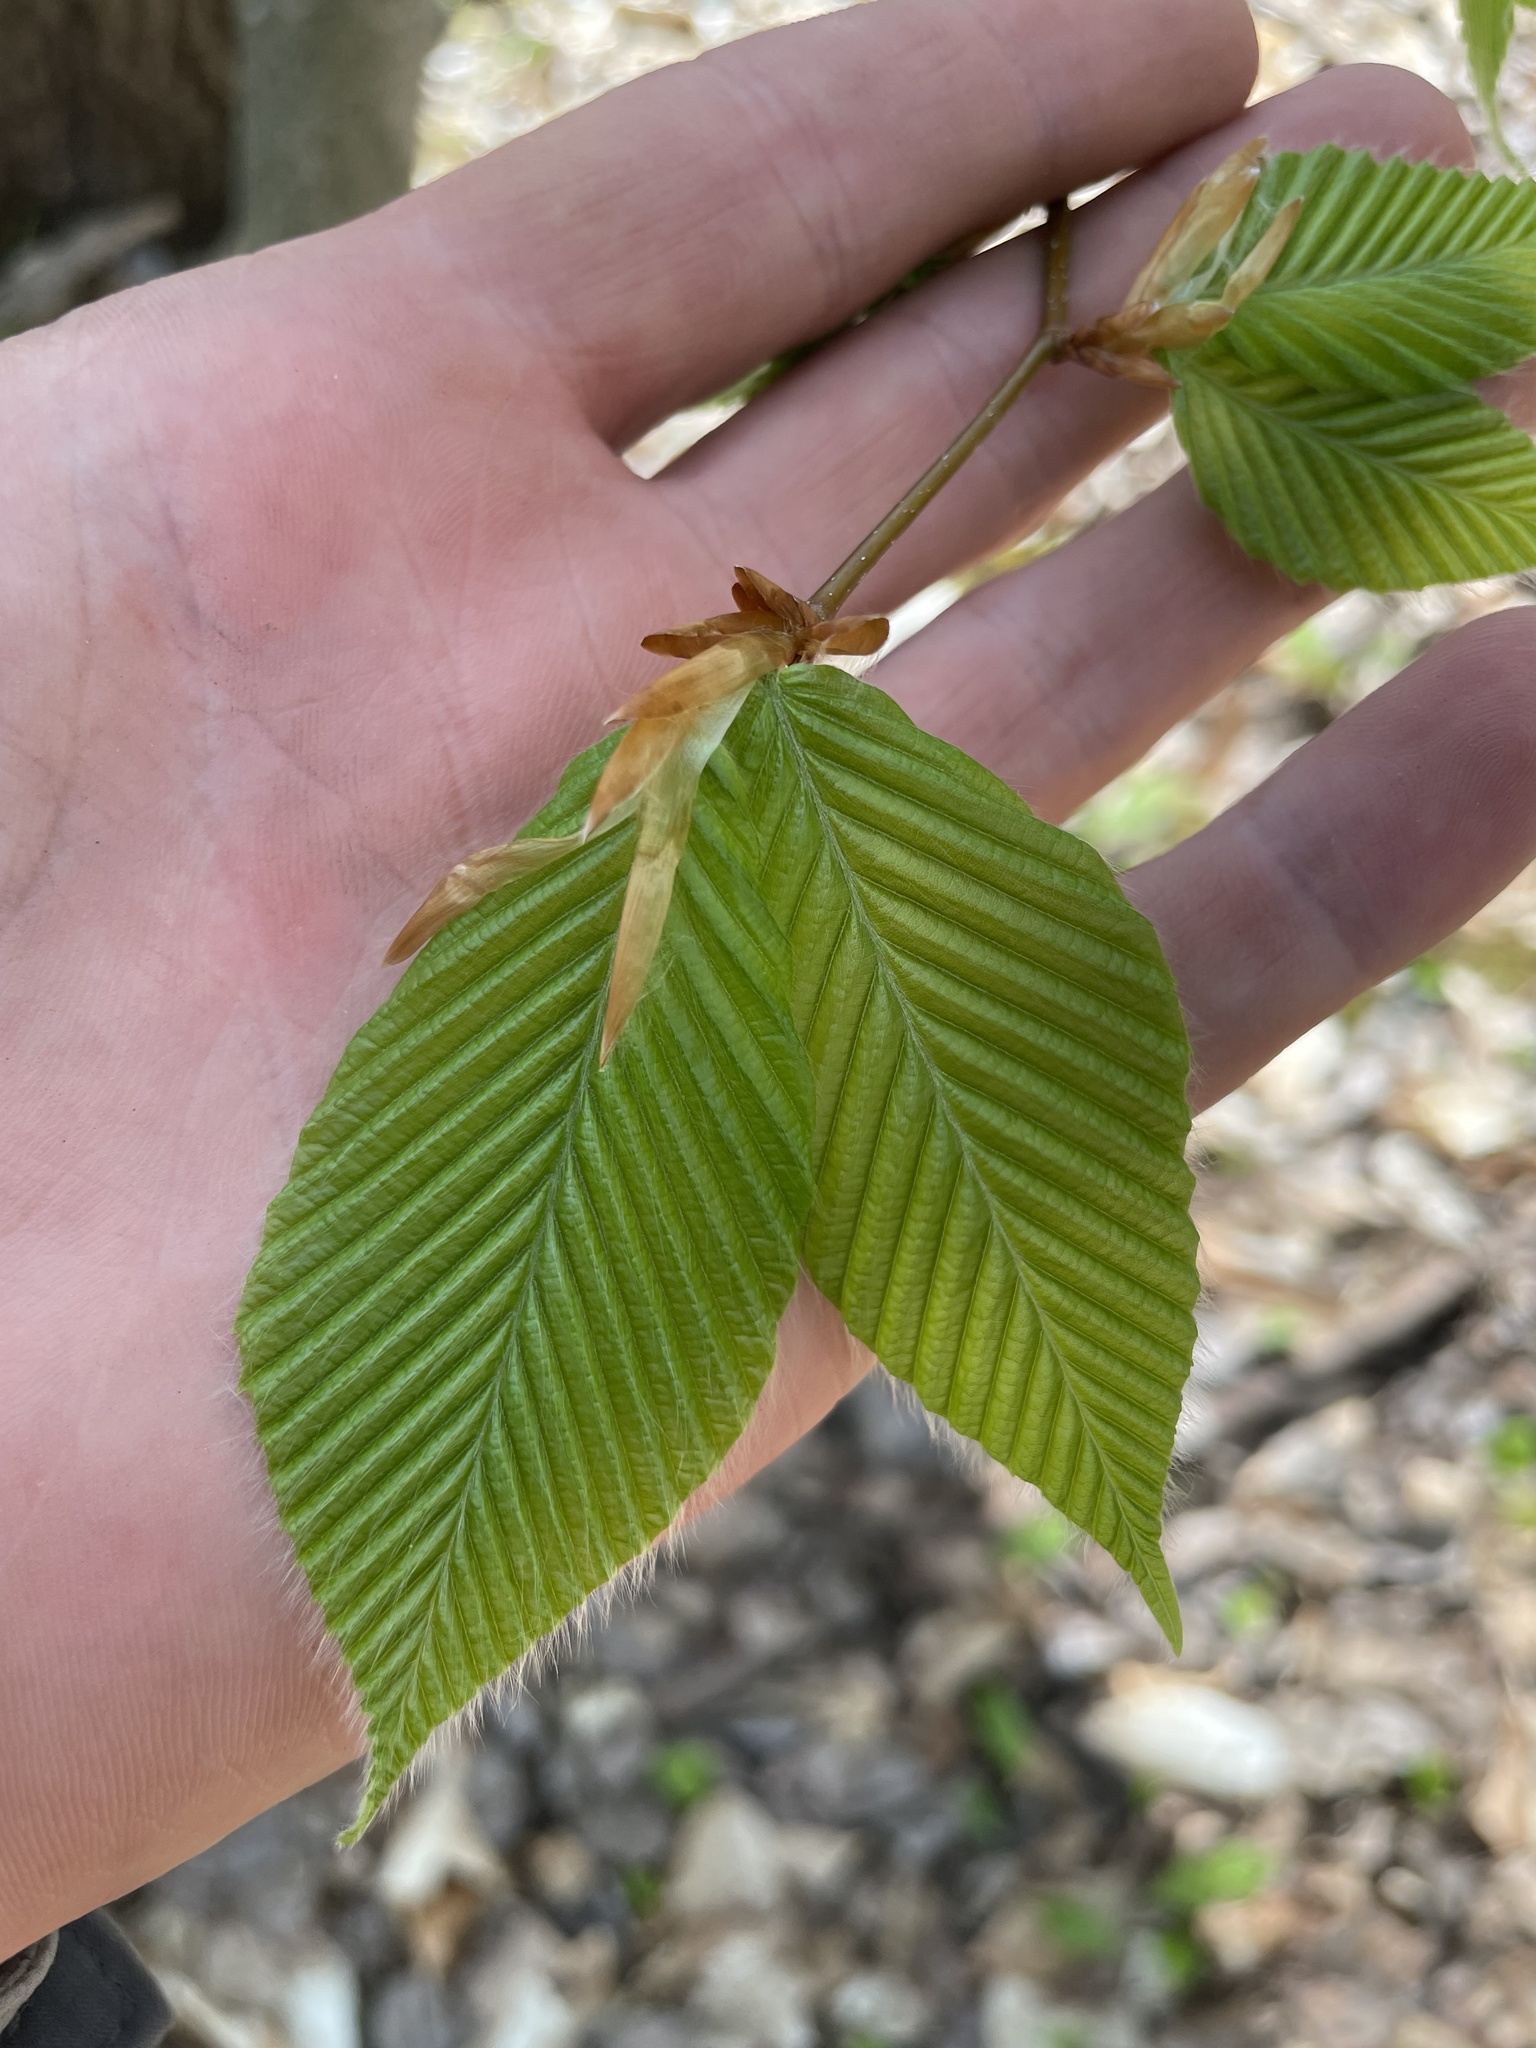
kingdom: Plantae
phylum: Tracheophyta
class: Magnoliopsida
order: Fagales
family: Fagaceae
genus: Fagus
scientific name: Fagus grandifolia
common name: American beech
